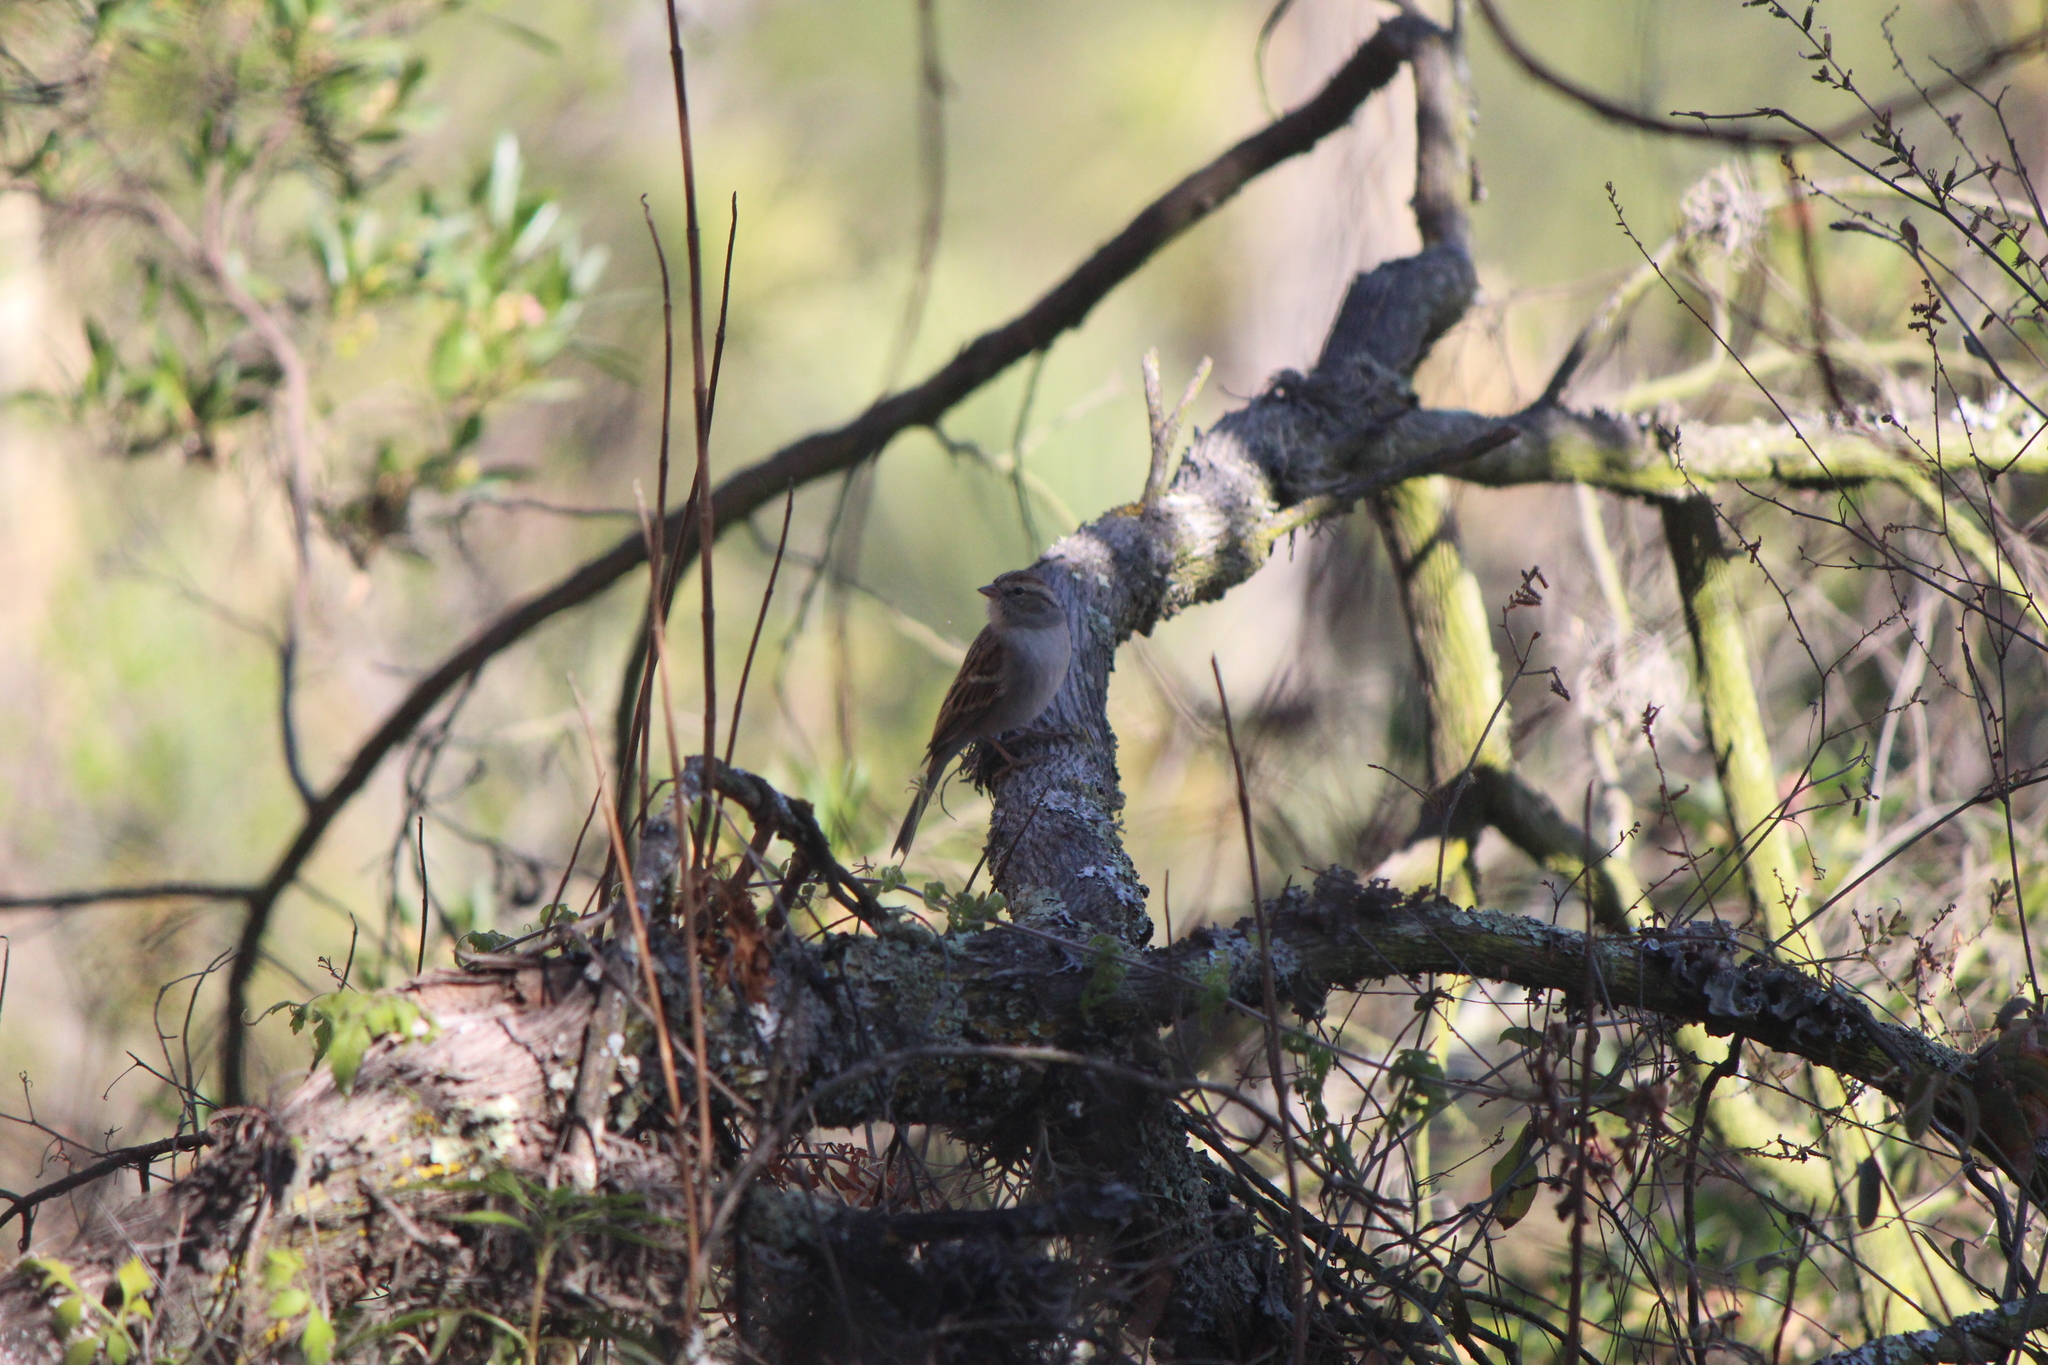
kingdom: Animalia
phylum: Chordata
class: Aves
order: Passeriformes
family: Passerellidae
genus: Spizella
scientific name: Spizella passerina
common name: Chipping sparrow
